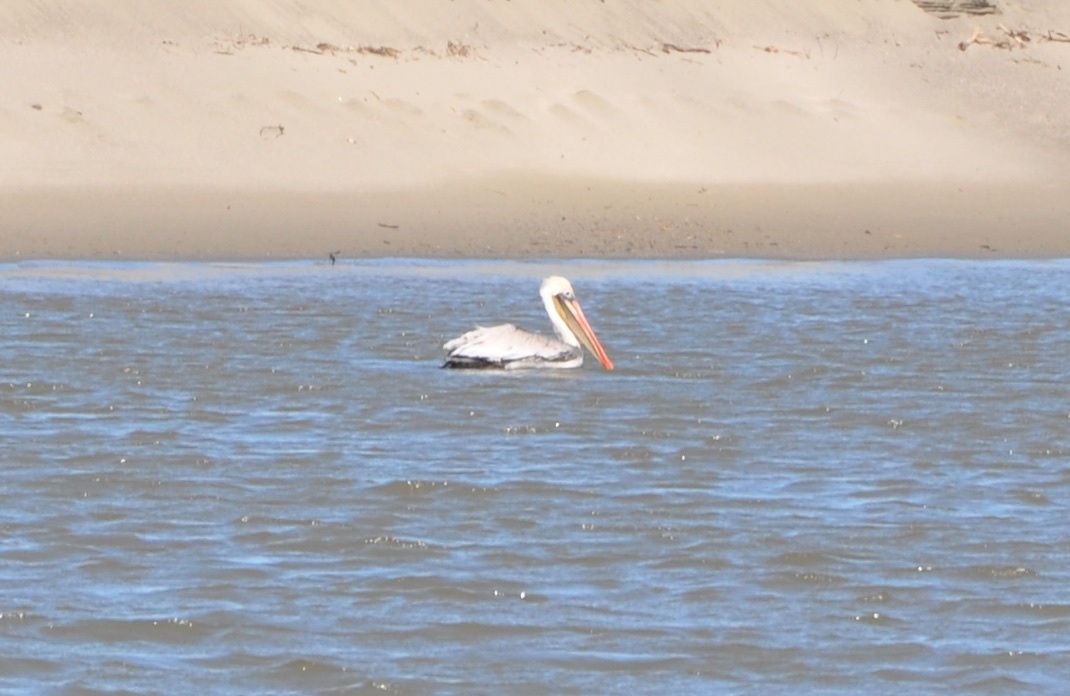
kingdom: Animalia
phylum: Chordata
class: Aves
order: Pelecaniformes
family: Pelecanidae
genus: Pelecanus
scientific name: Pelecanus occidentalis
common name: Brown pelican
